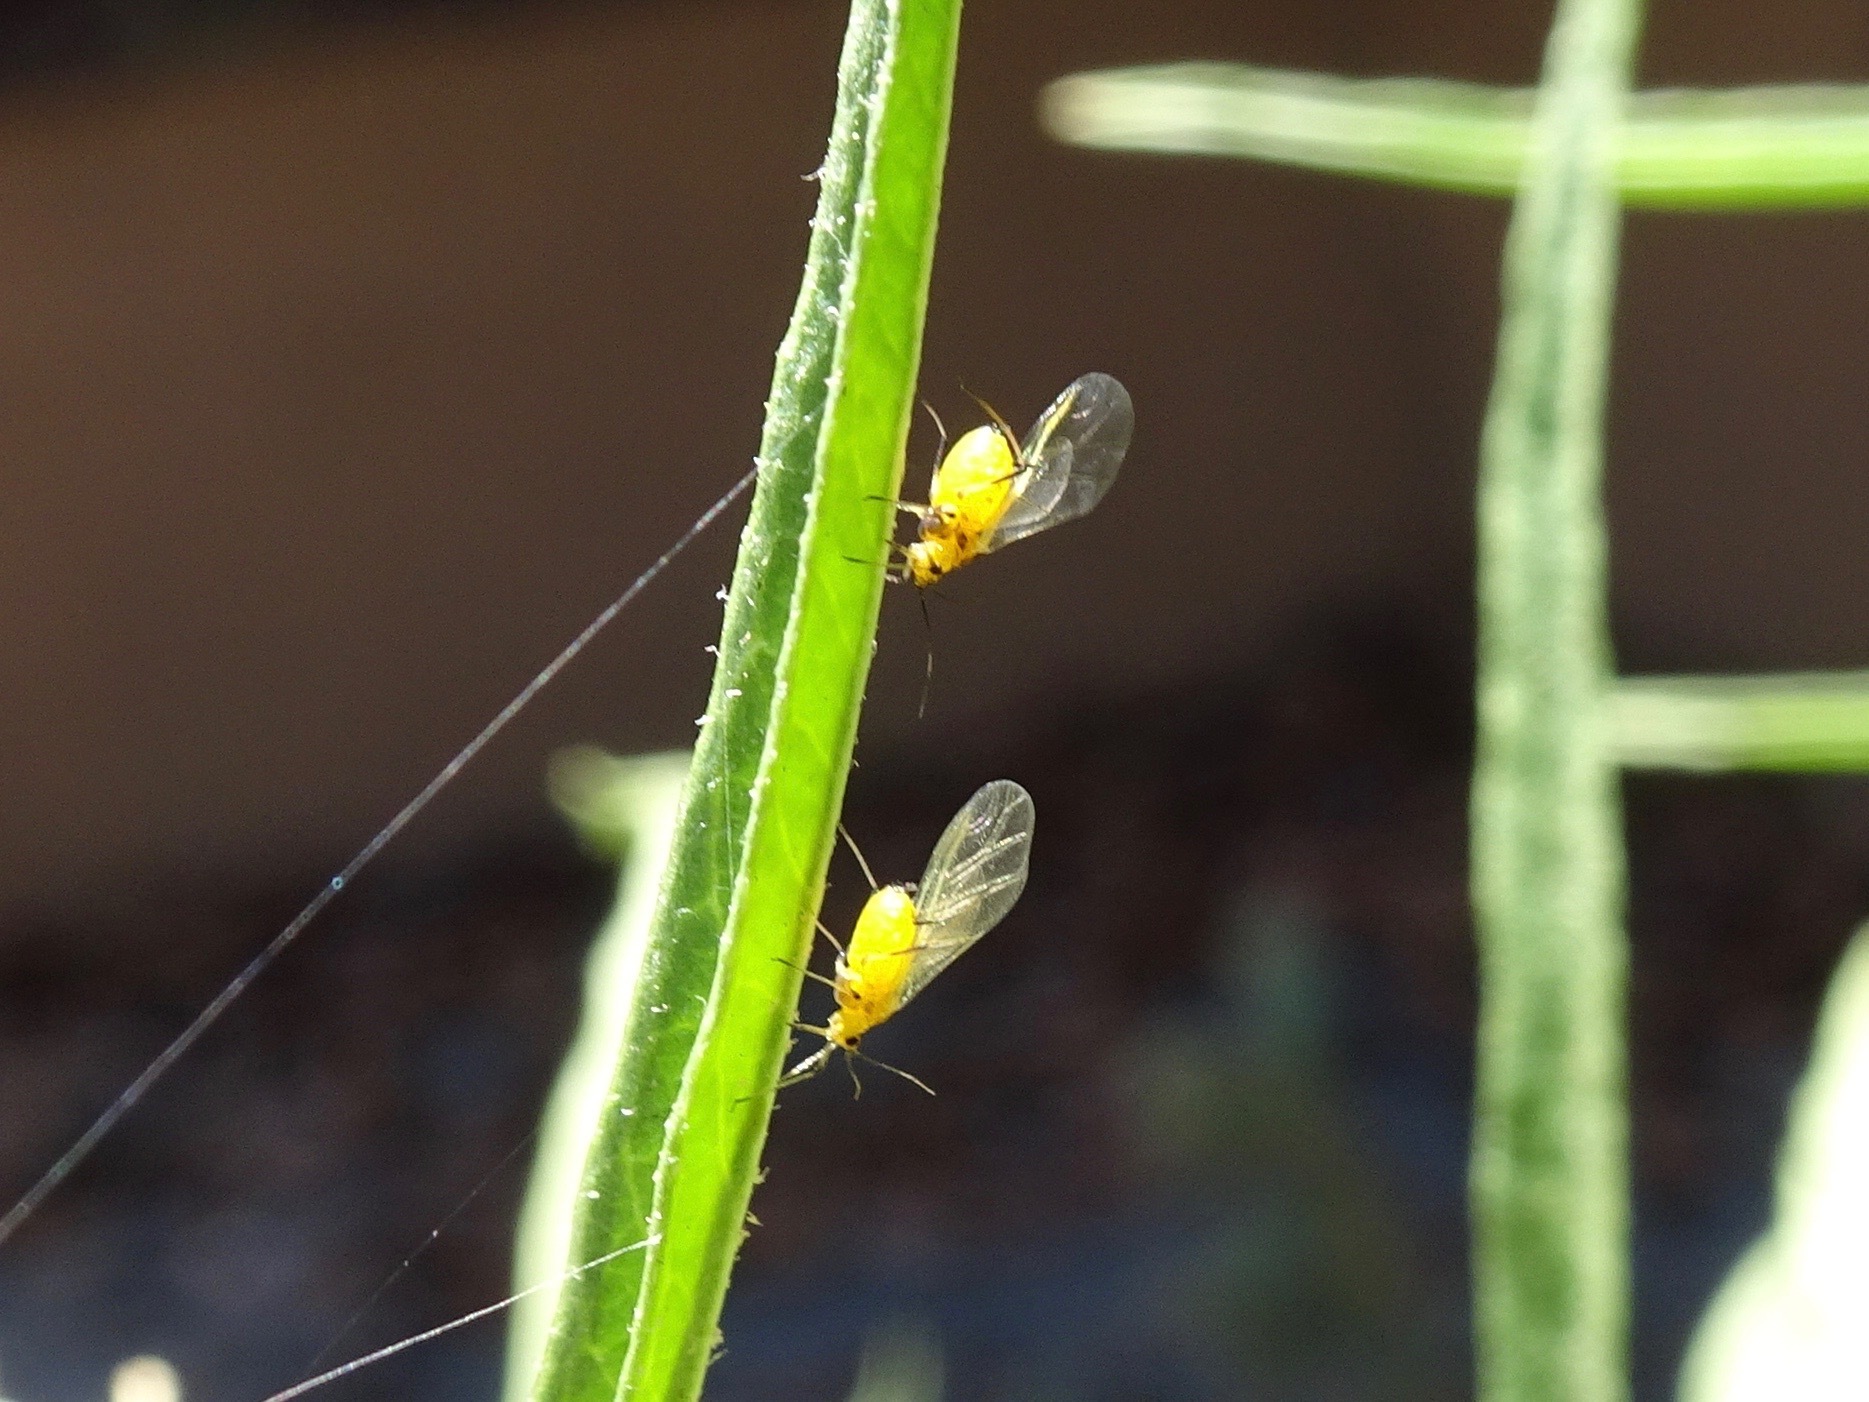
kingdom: Animalia
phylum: Arthropoda
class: Insecta
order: Hemiptera
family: Aphididae
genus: Aphis
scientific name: Aphis nerii
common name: Oleander aphid
